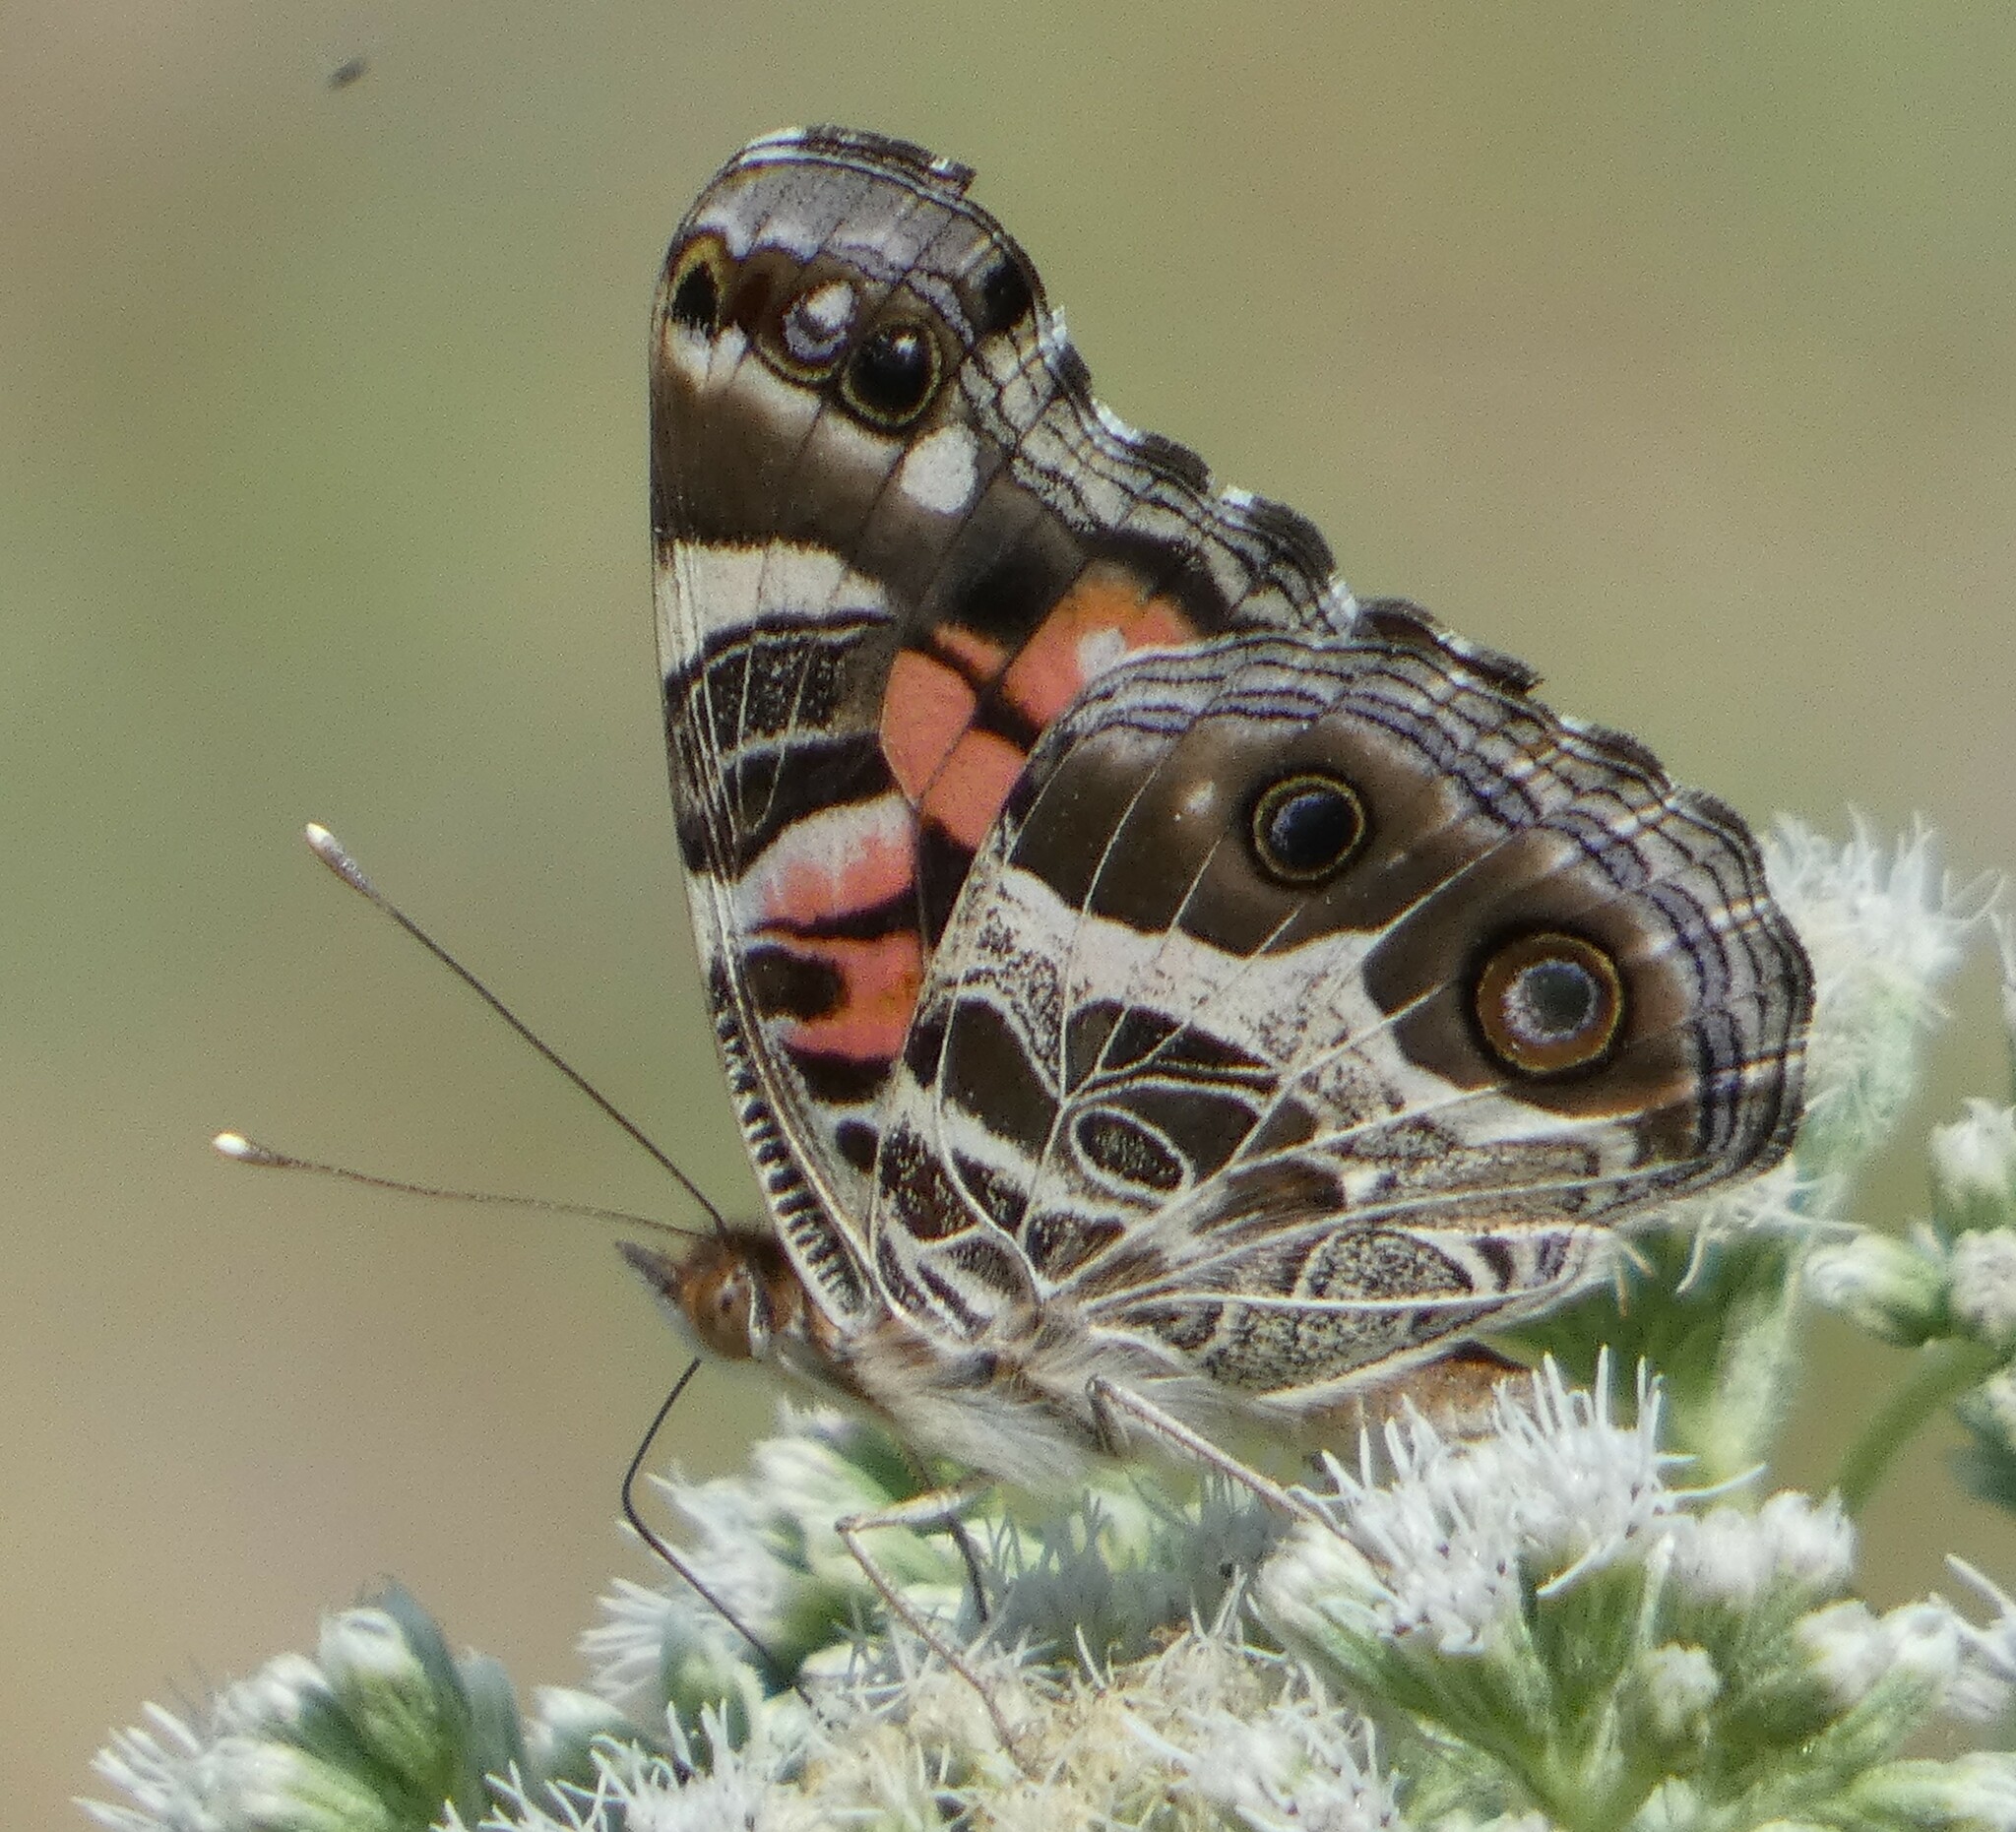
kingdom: Animalia
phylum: Arthropoda
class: Insecta
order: Lepidoptera
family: Nymphalidae
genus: Vanessa
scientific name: Vanessa virginiensis
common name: American lady
